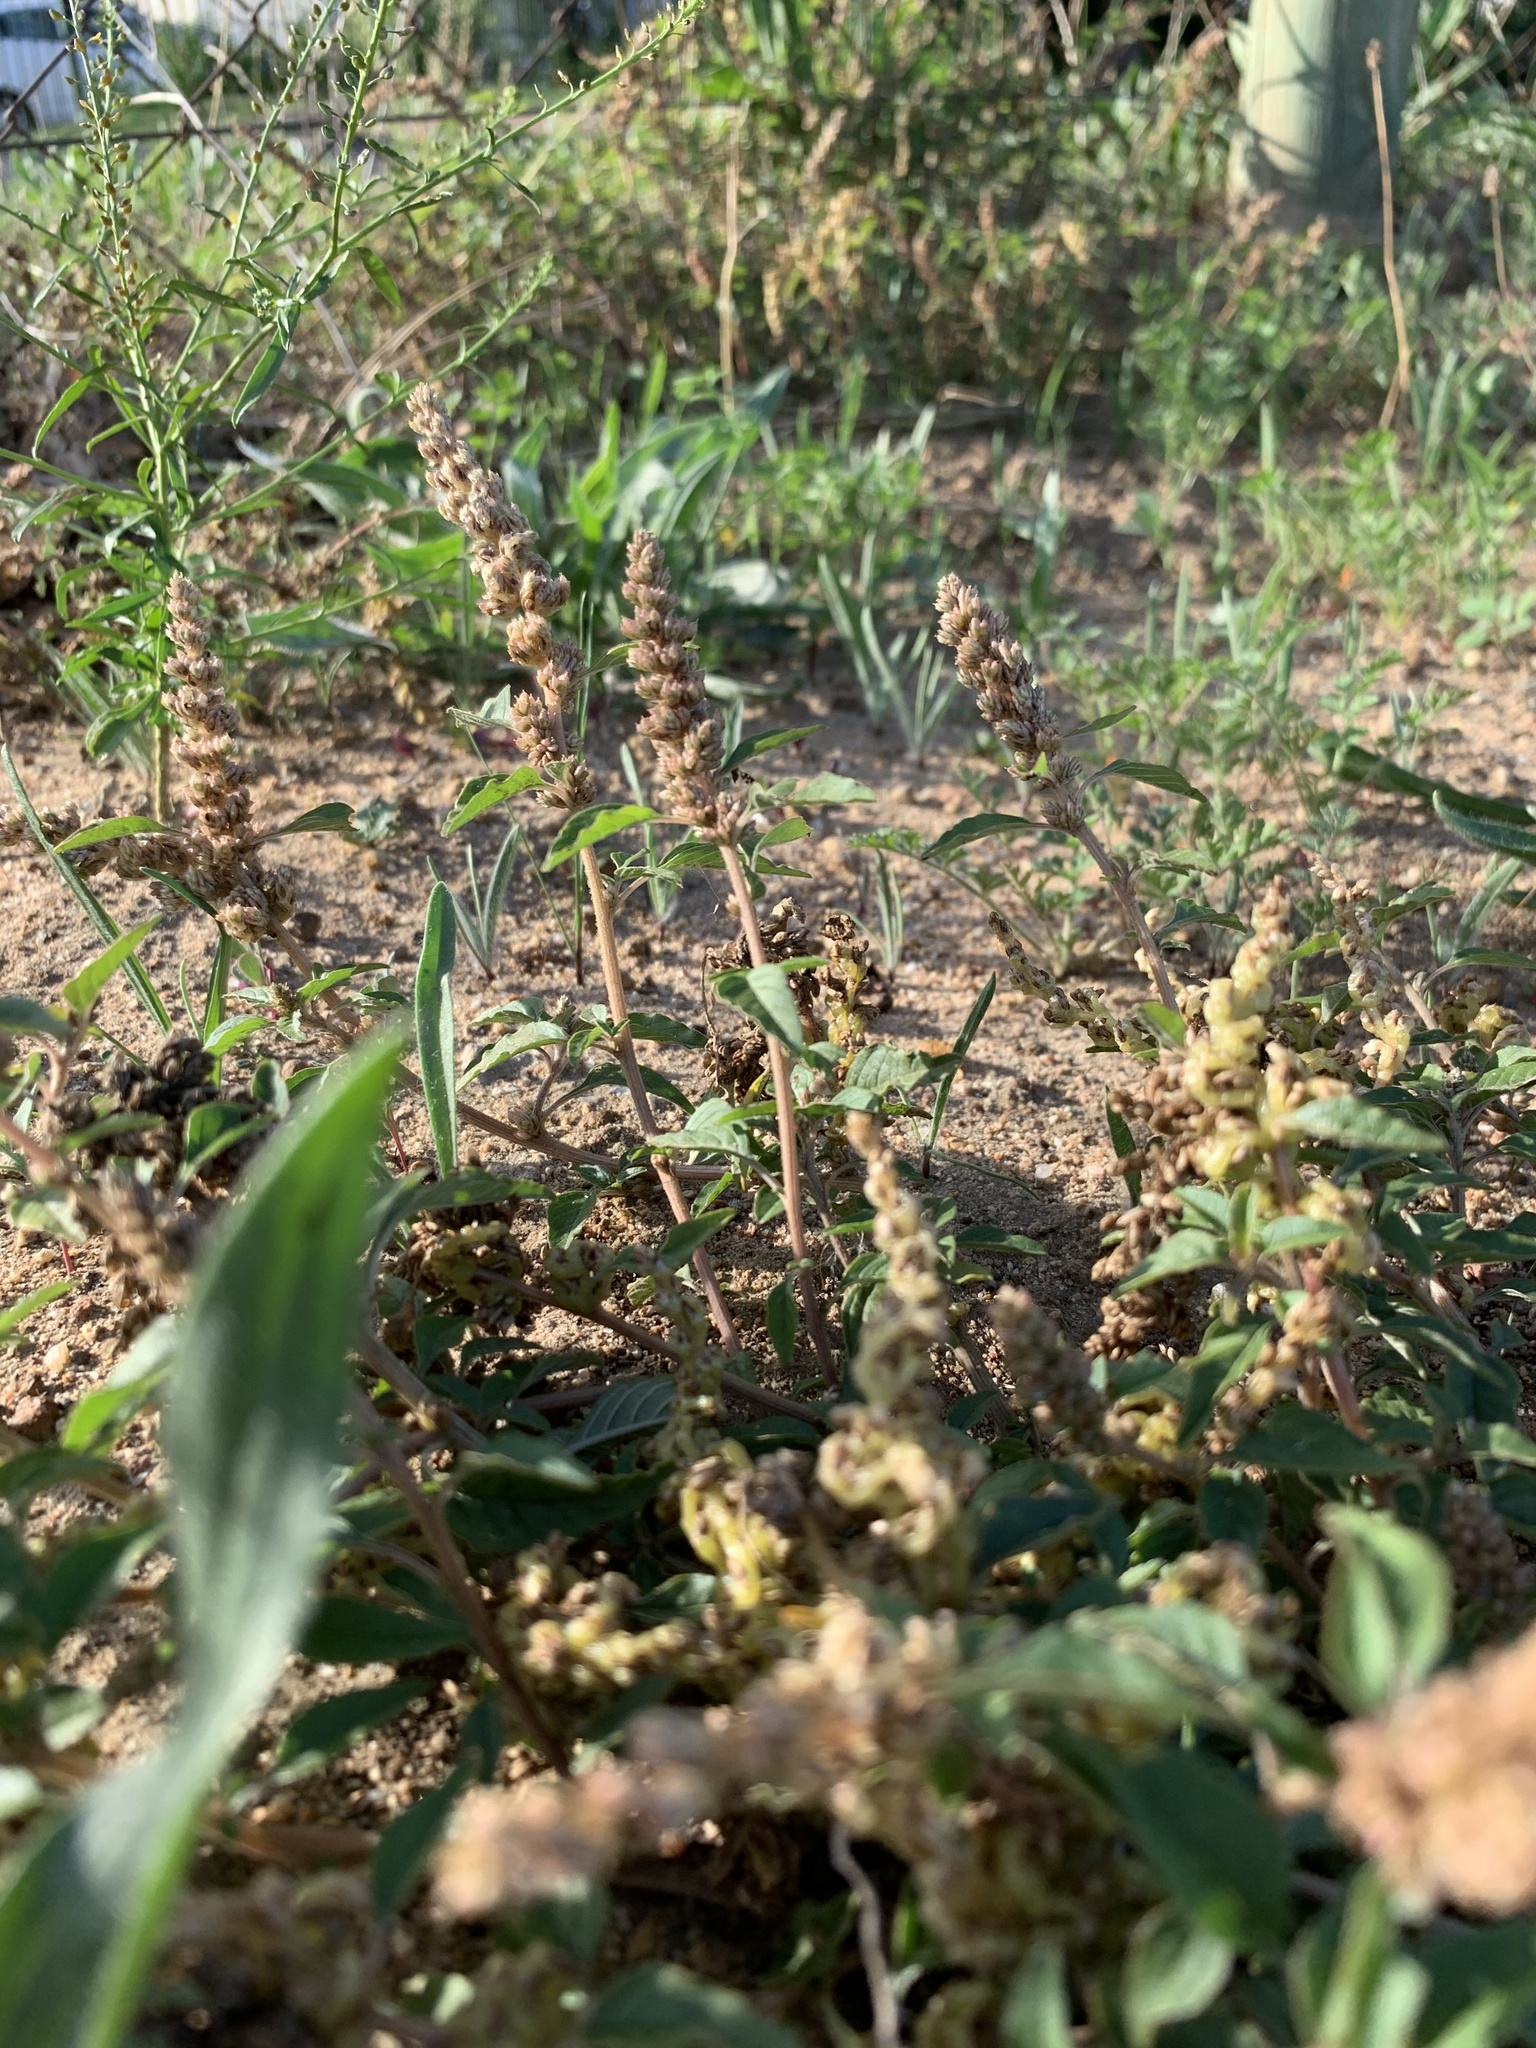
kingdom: Plantae
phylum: Tracheophyta
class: Magnoliopsida
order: Caryophyllales
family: Amaranthaceae
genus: Amaranthus
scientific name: Amaranthus deflexus
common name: Perennial pigweed
